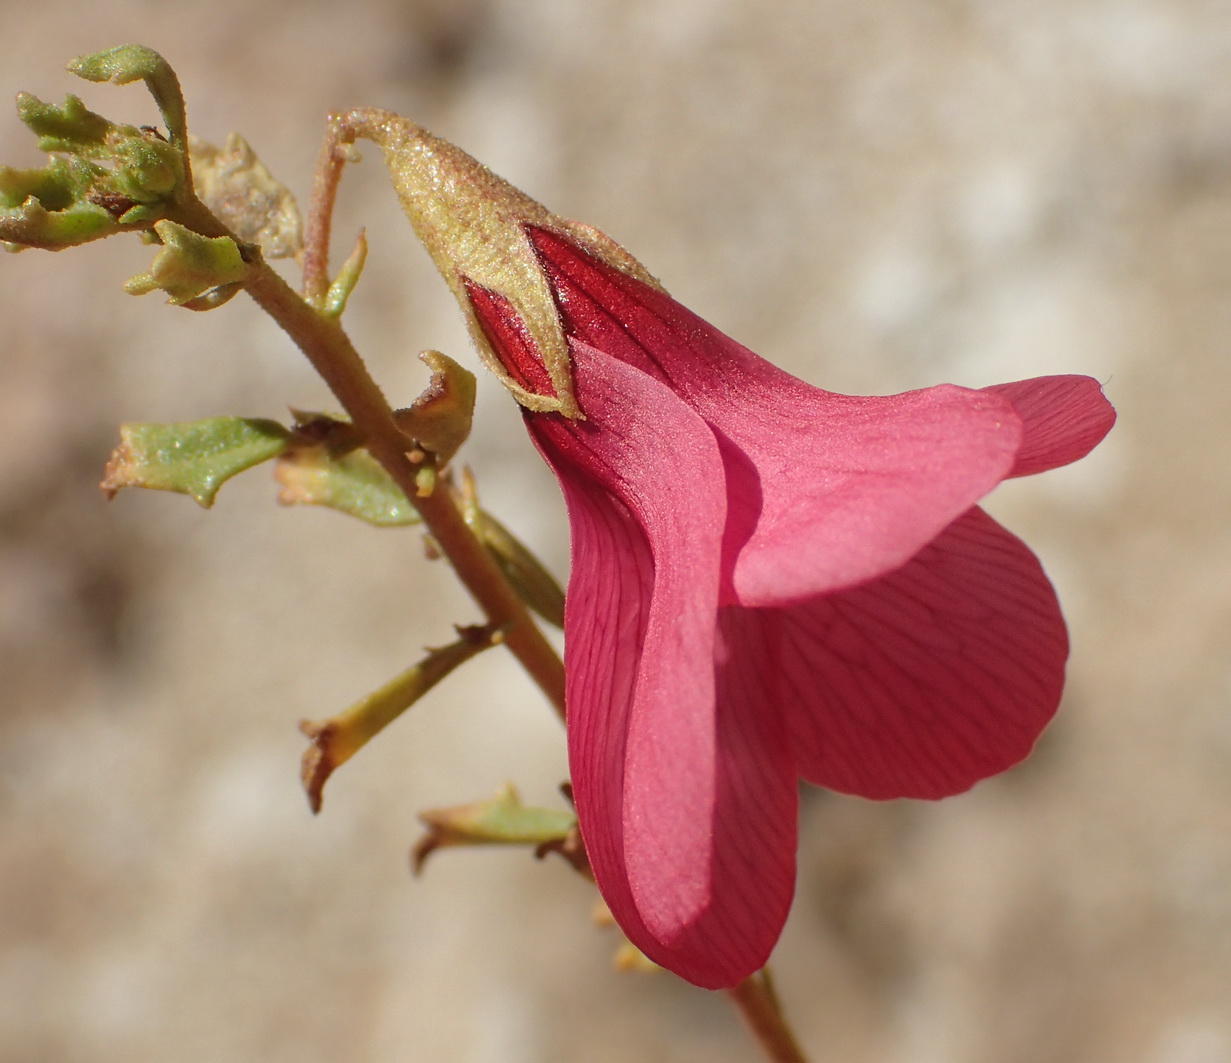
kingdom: Plantae
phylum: Tracheophyta
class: Magnoliopsida
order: Malvales
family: Malvaceae
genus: Hermannia
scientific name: Hermannia grandiflora
